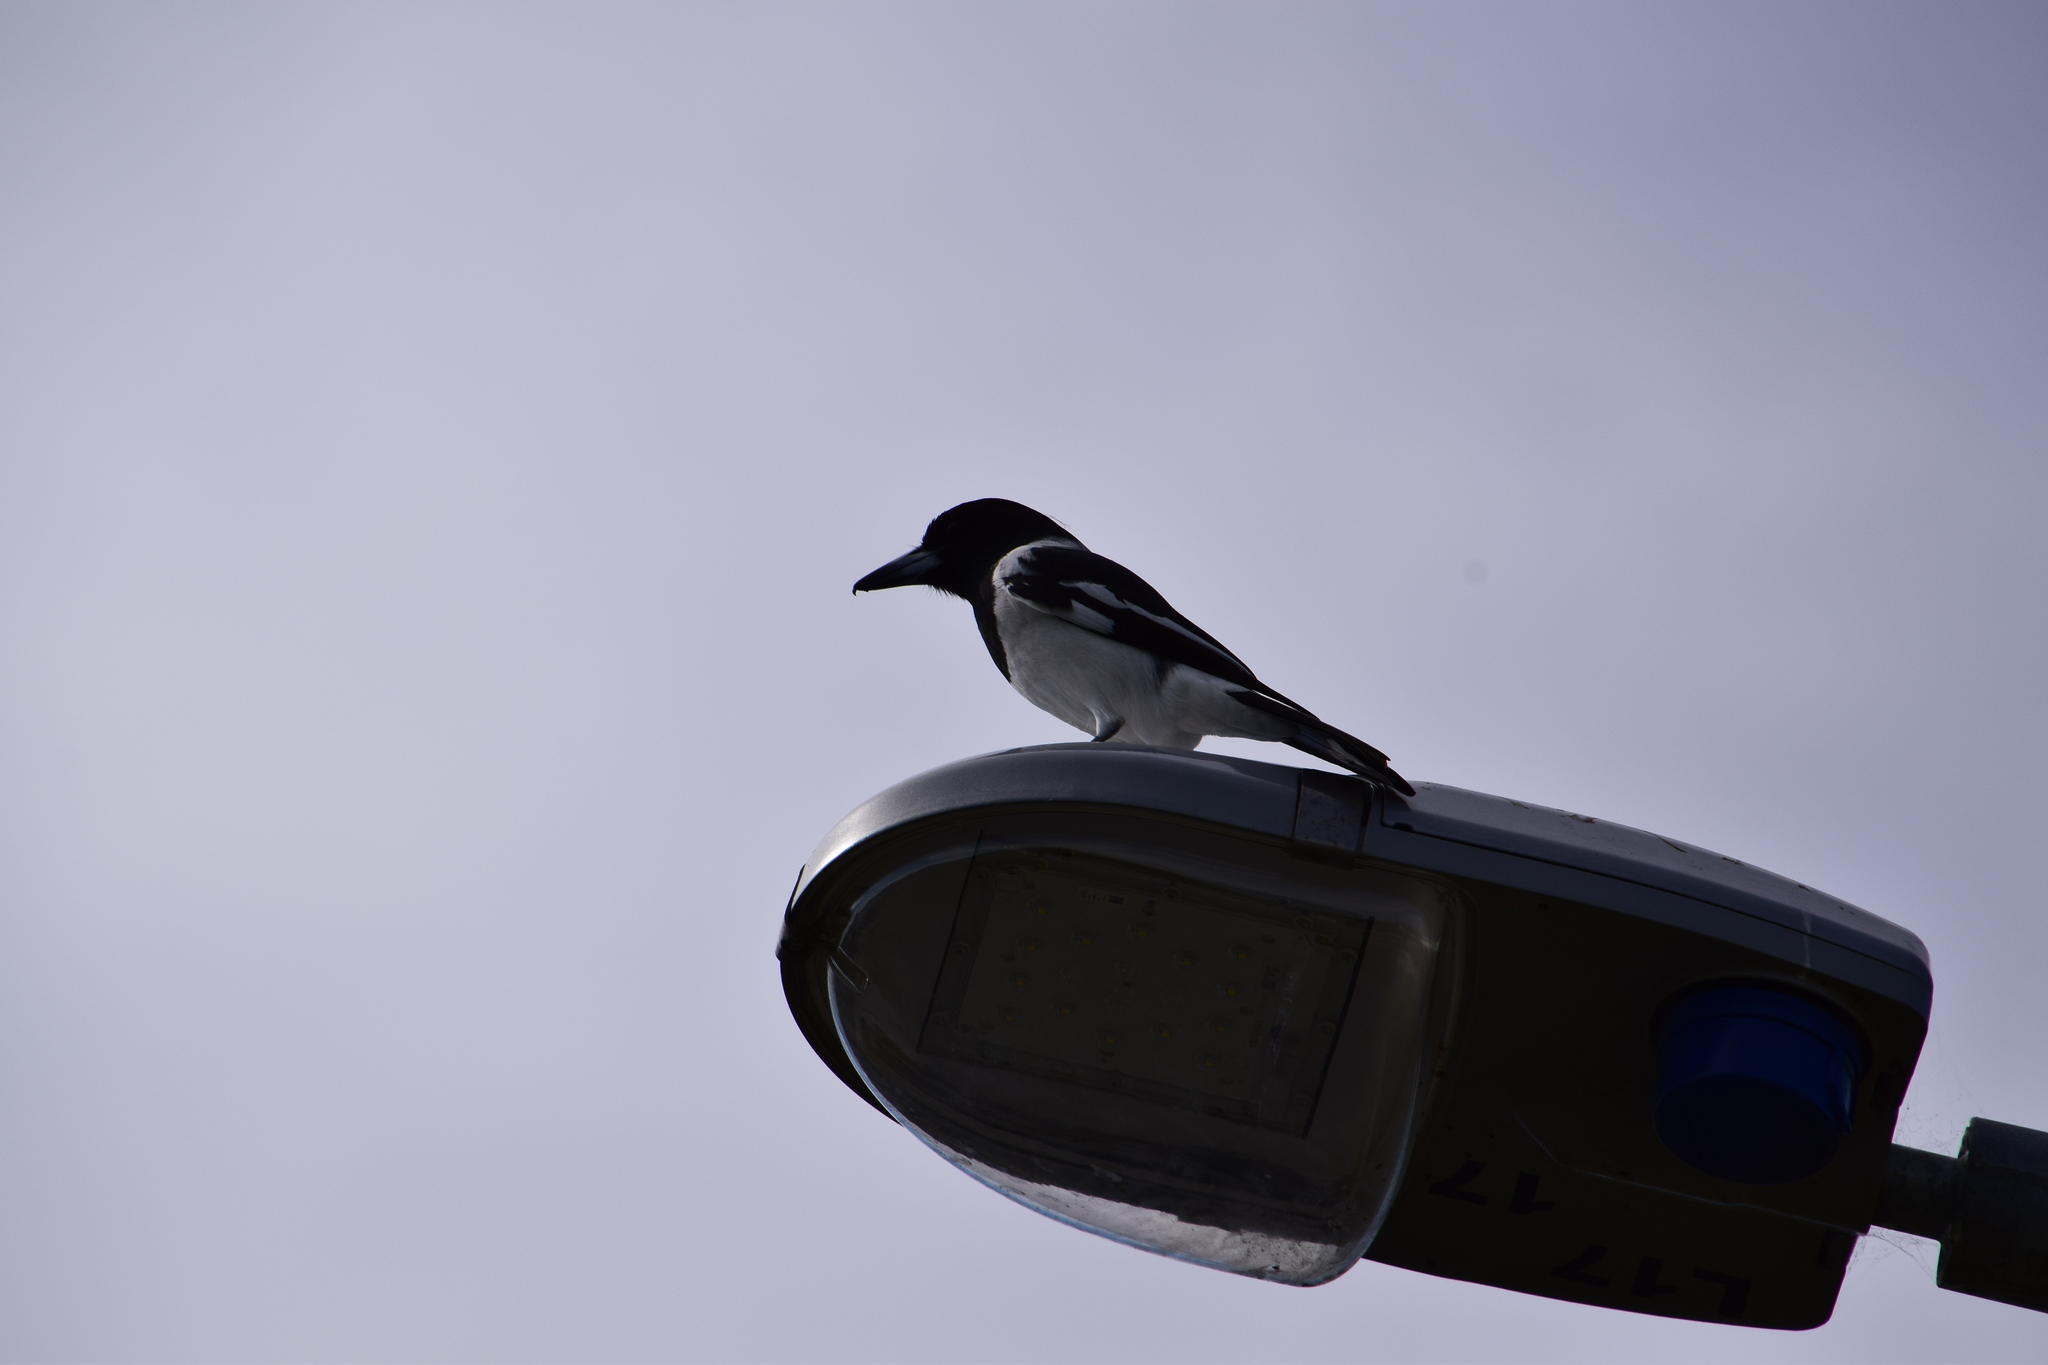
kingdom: Animalia
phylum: Chordata
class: Aves
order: Passeriformes
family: Cracticidae
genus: Cracticus
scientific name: Cracticus nigrogularis
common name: Pied butcherbird
